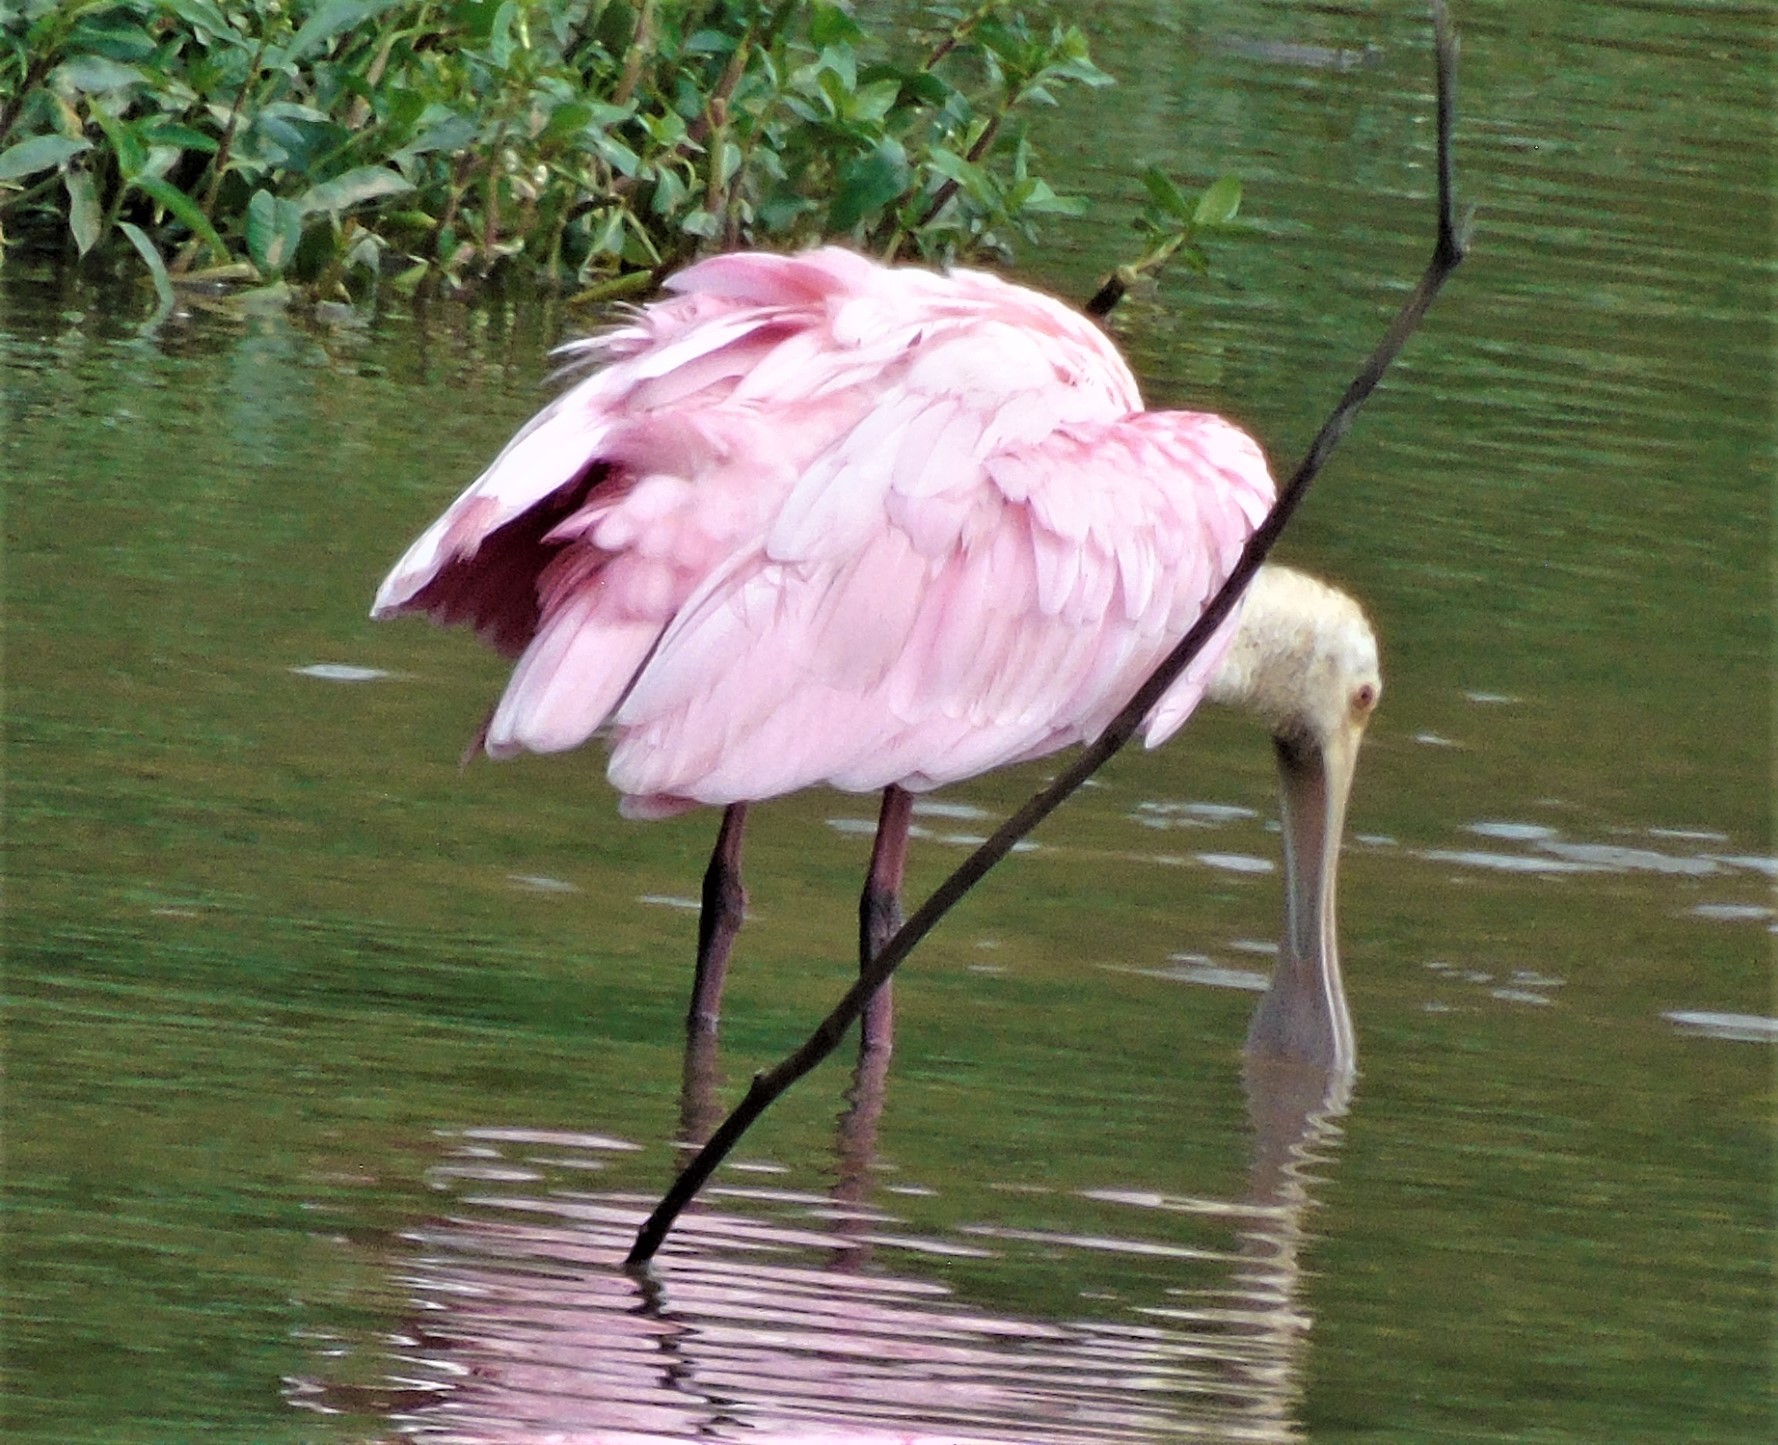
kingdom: Animalia
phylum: Chordata
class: Aves
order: Pelecaniformes
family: Threskiornithidae
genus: Platalea
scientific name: Platalea ajaja
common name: Roseate spoonbill
